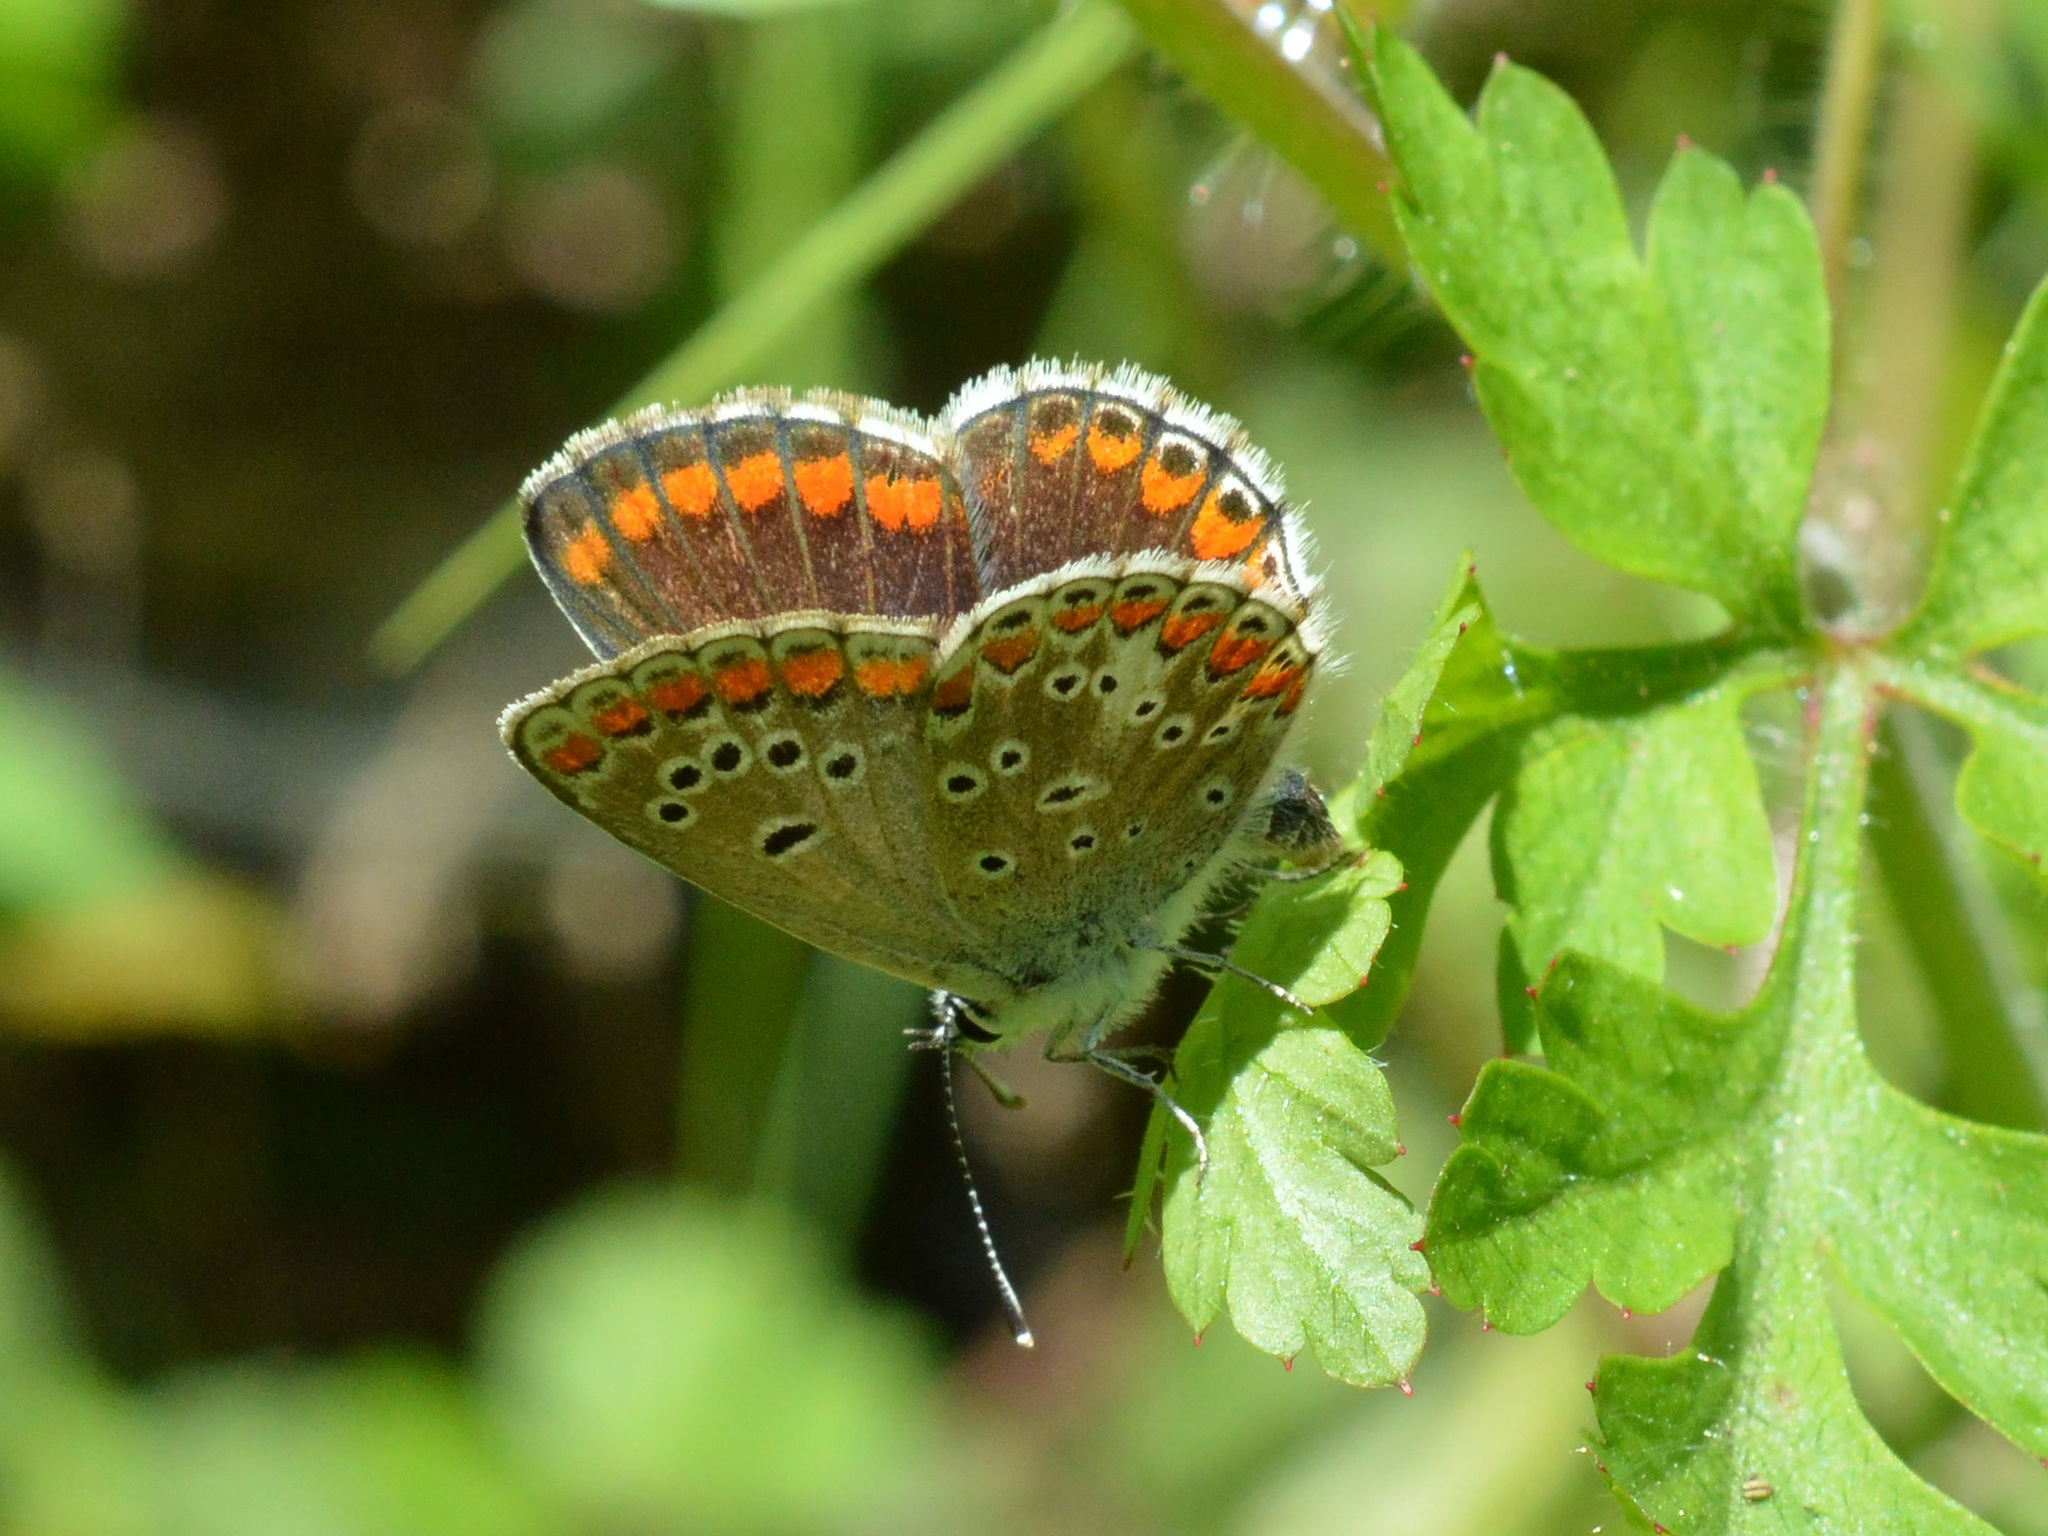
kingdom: Animalia
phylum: Arthropoda
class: Insecta
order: Lepidoptera
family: Lycaenidae
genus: Aricia
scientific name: Aricia agestis
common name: Brown argus
